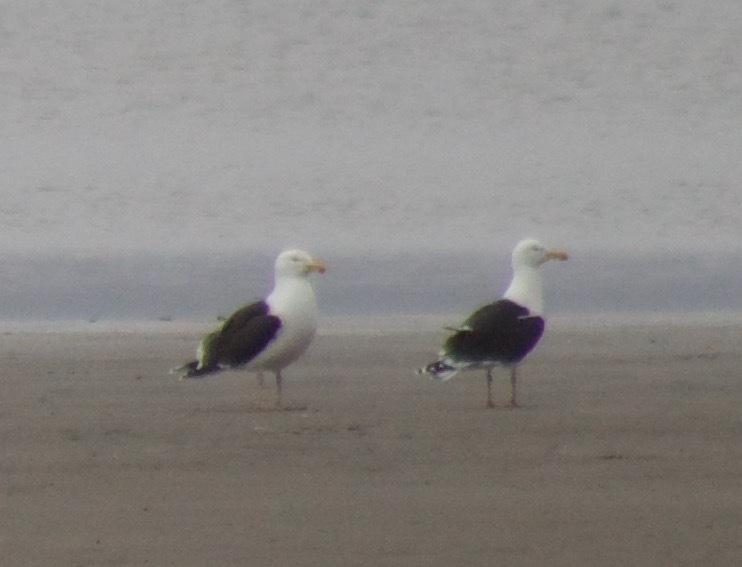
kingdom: Animalia
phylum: Chordata
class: Aves
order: Charadriiformes
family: Laridae
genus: Larus
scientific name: Larus marinus
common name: Great black-backed gull
